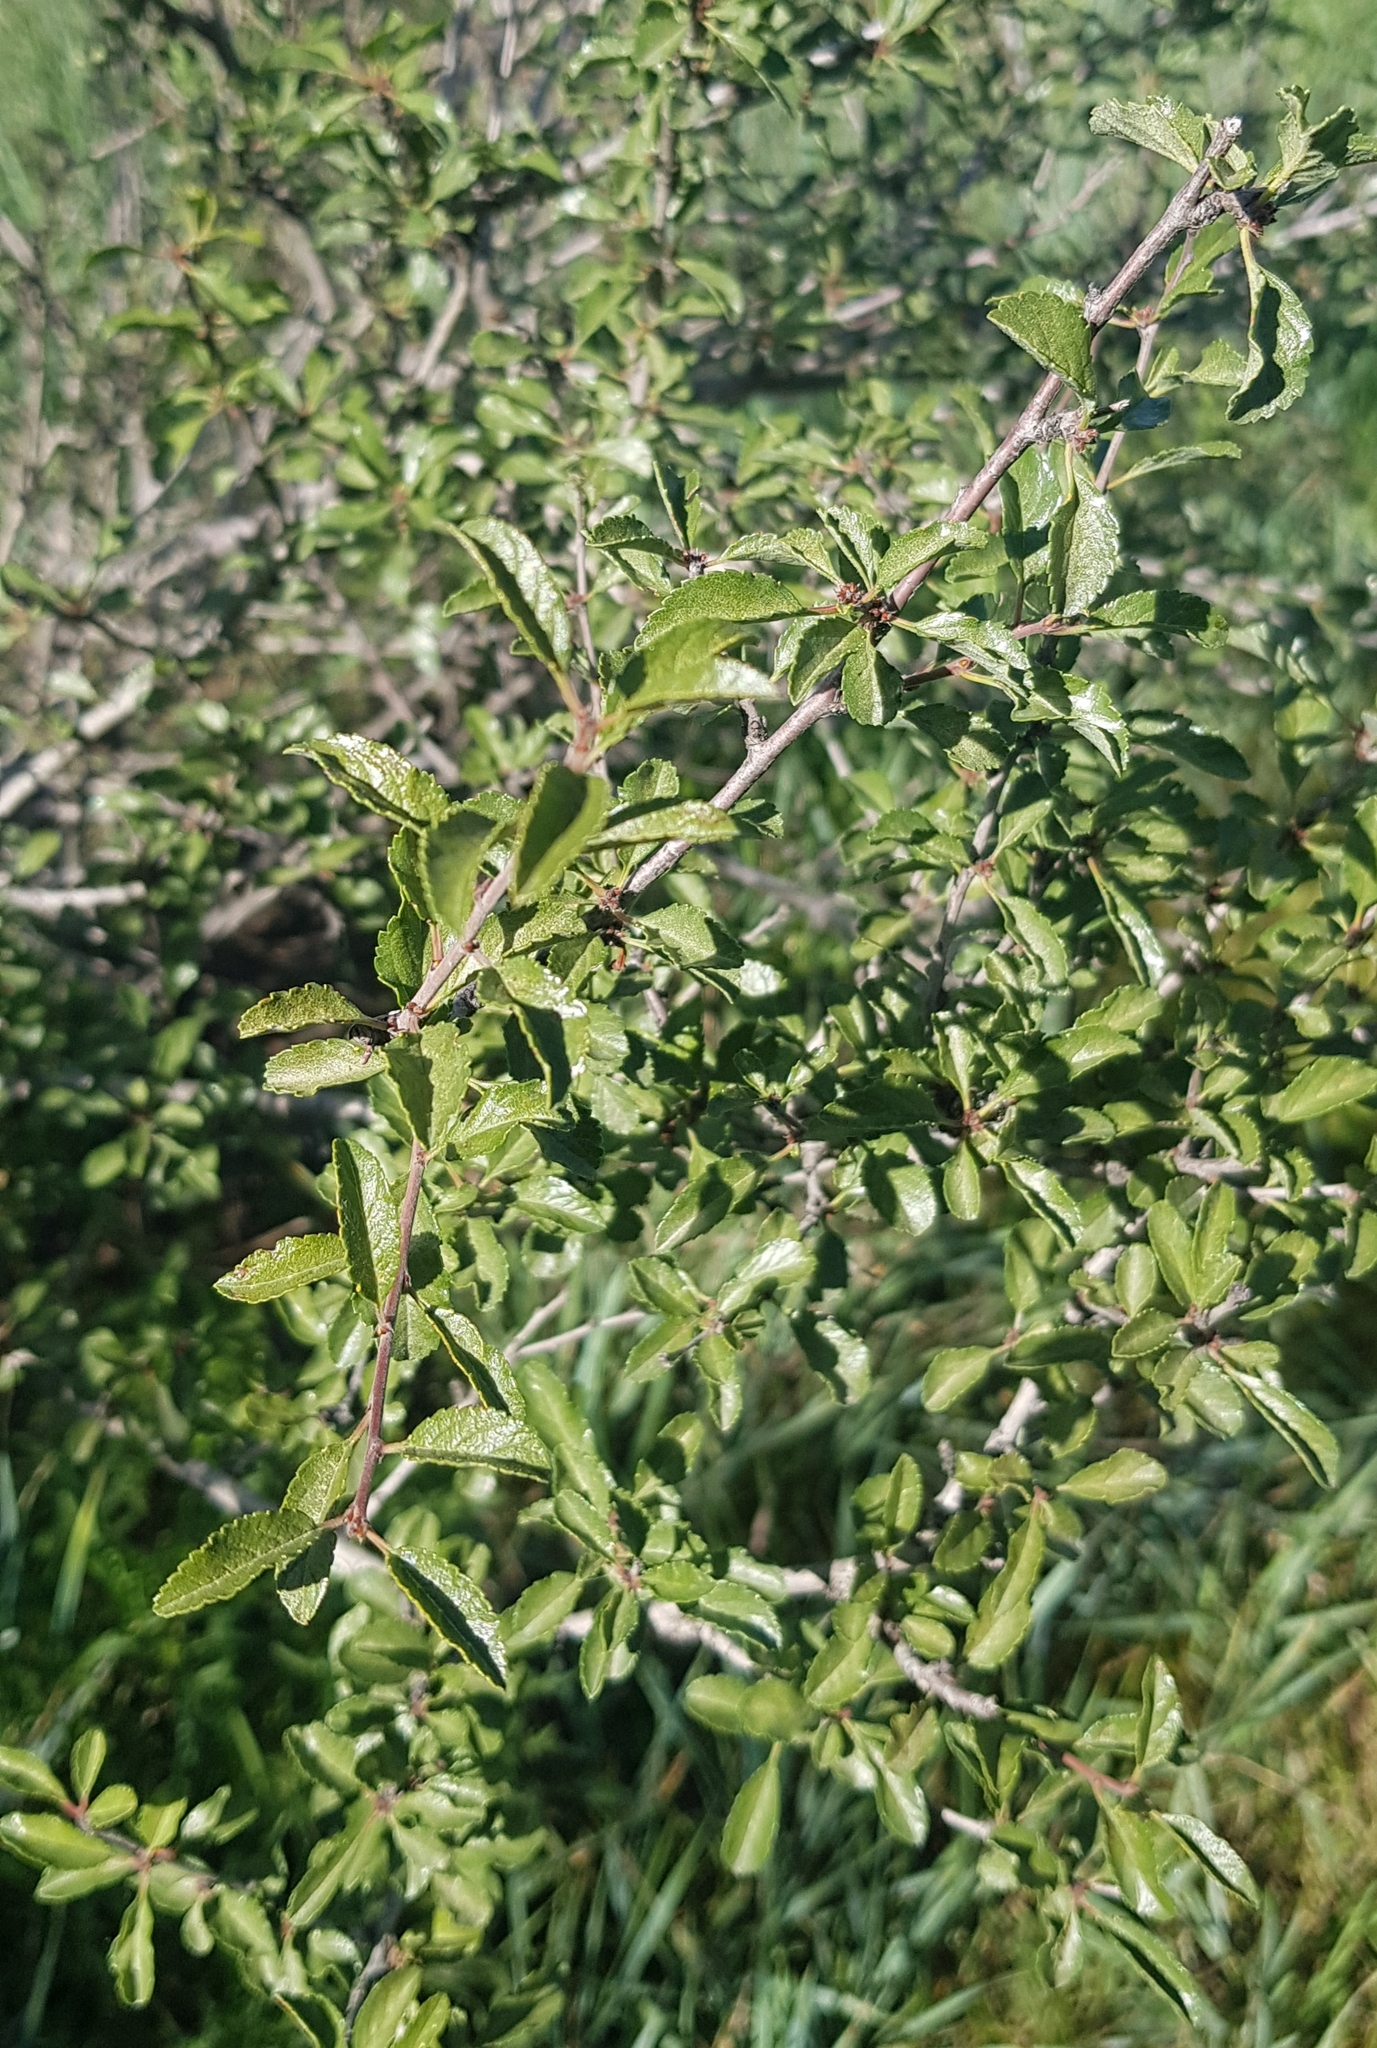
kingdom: Plantae
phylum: Tracheophyta
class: Magnoliopsida
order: Rosales
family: Rosaceae
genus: Prunus
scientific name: Prunus pedunculata
